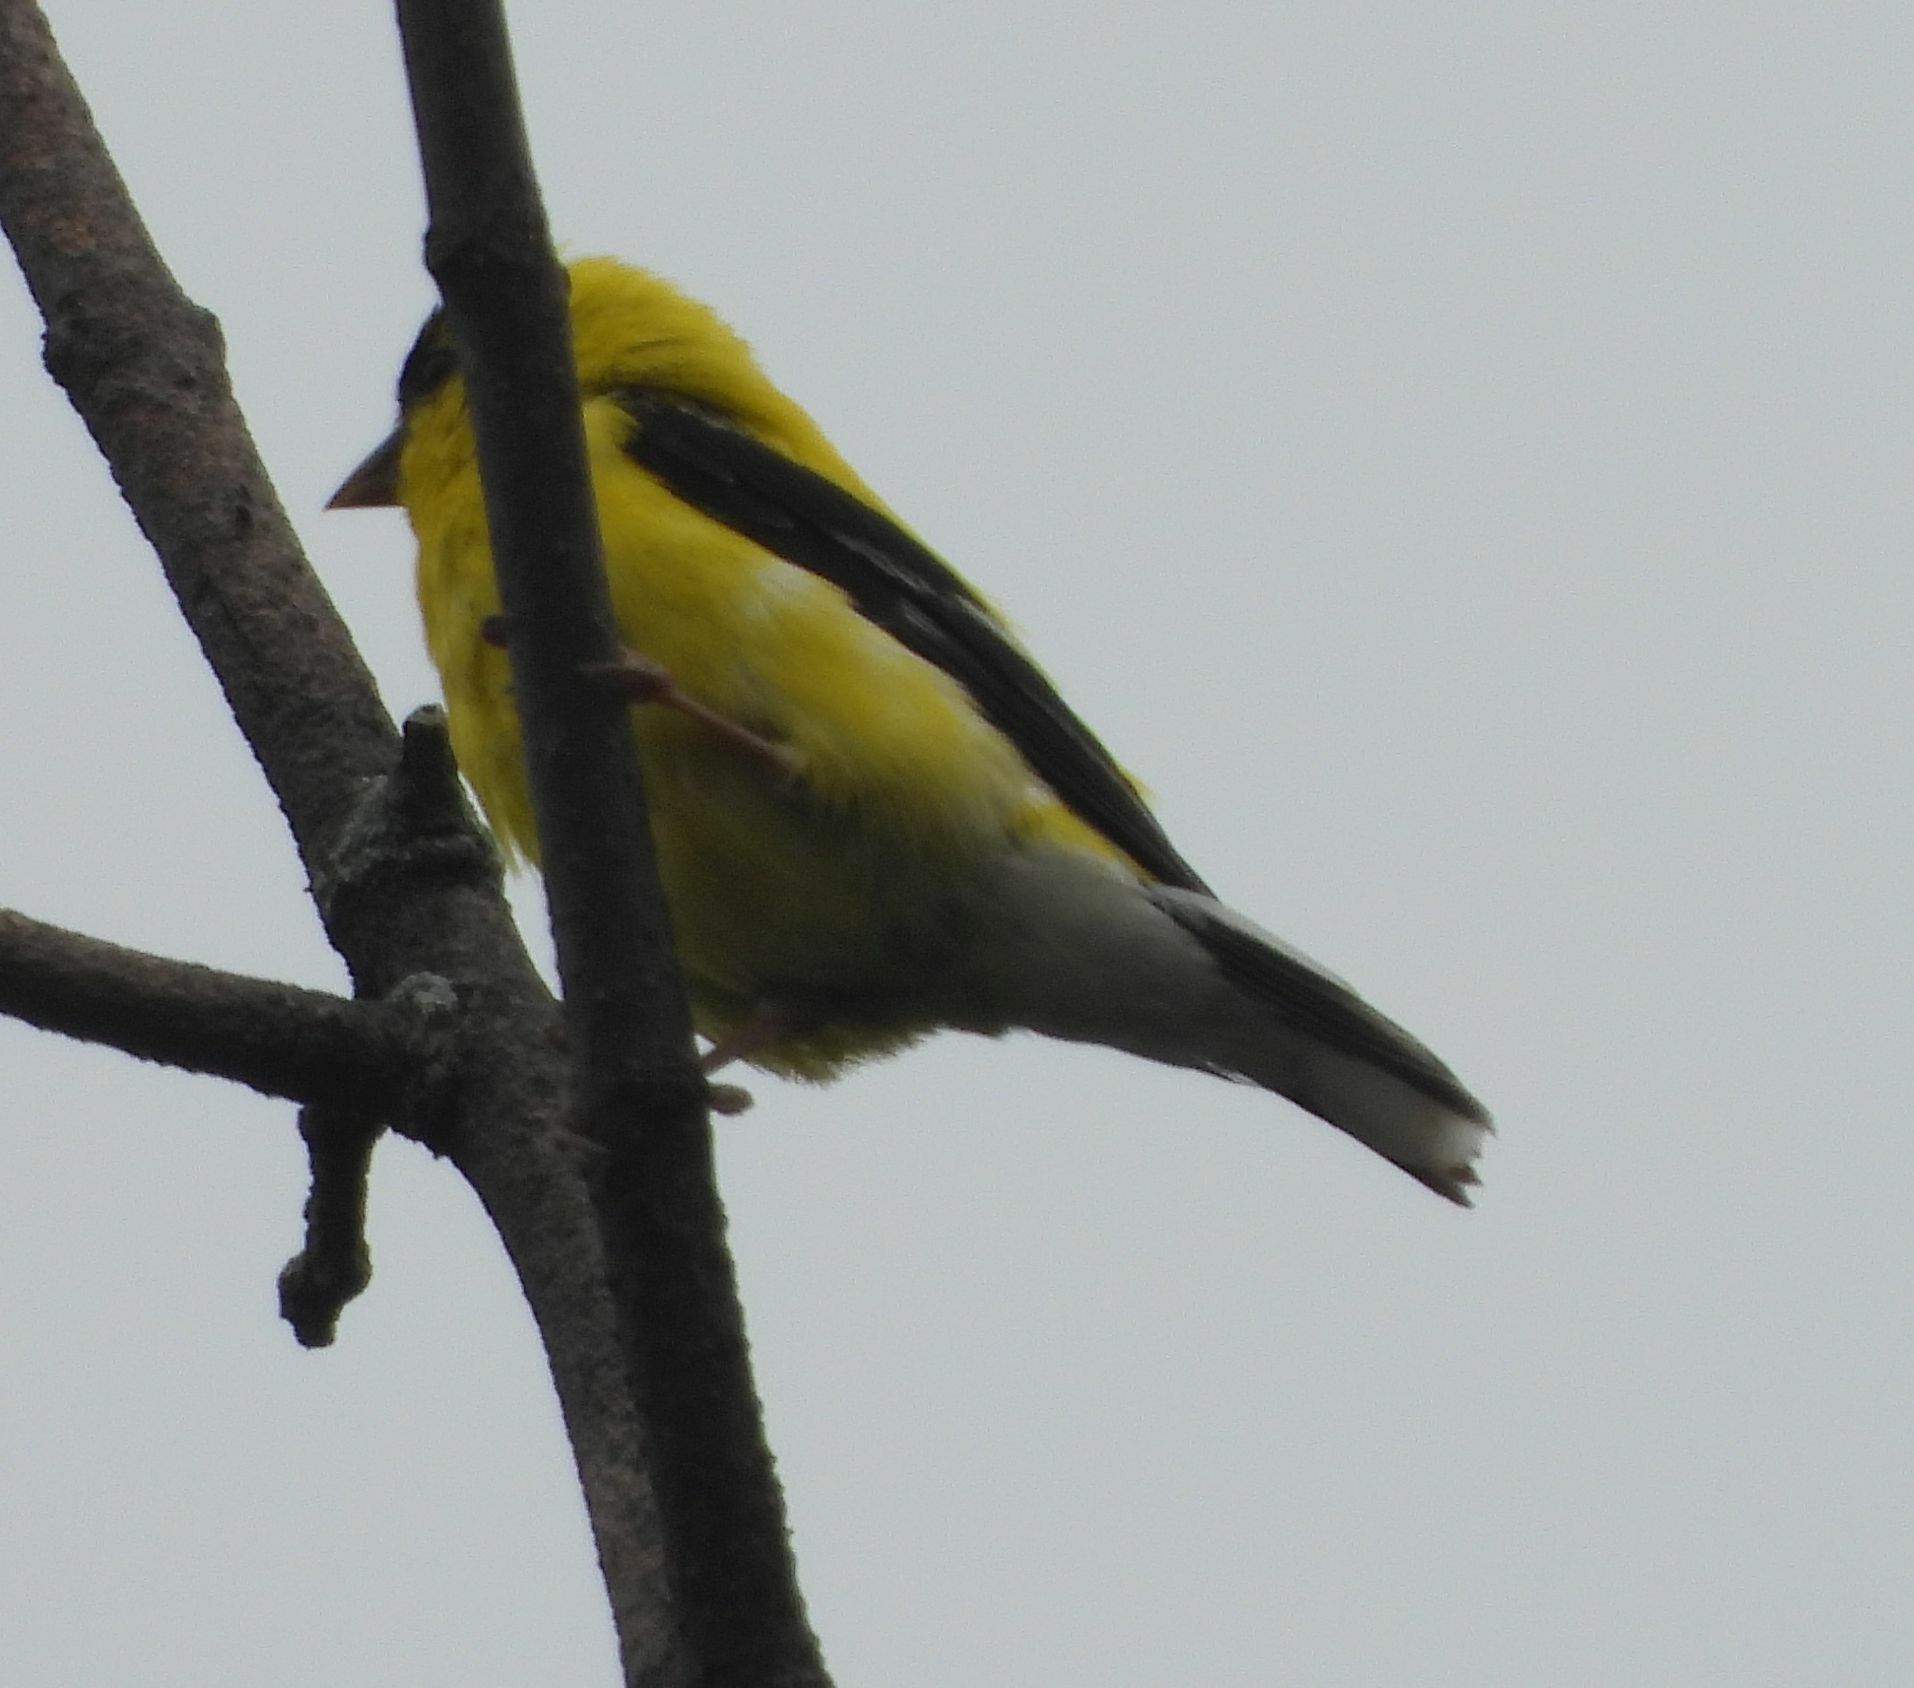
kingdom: Animalia
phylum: Chordata
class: Aves
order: Passeriformes
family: Fringillidae
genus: Spinus
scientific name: Spinus tristis
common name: American goldfinch
